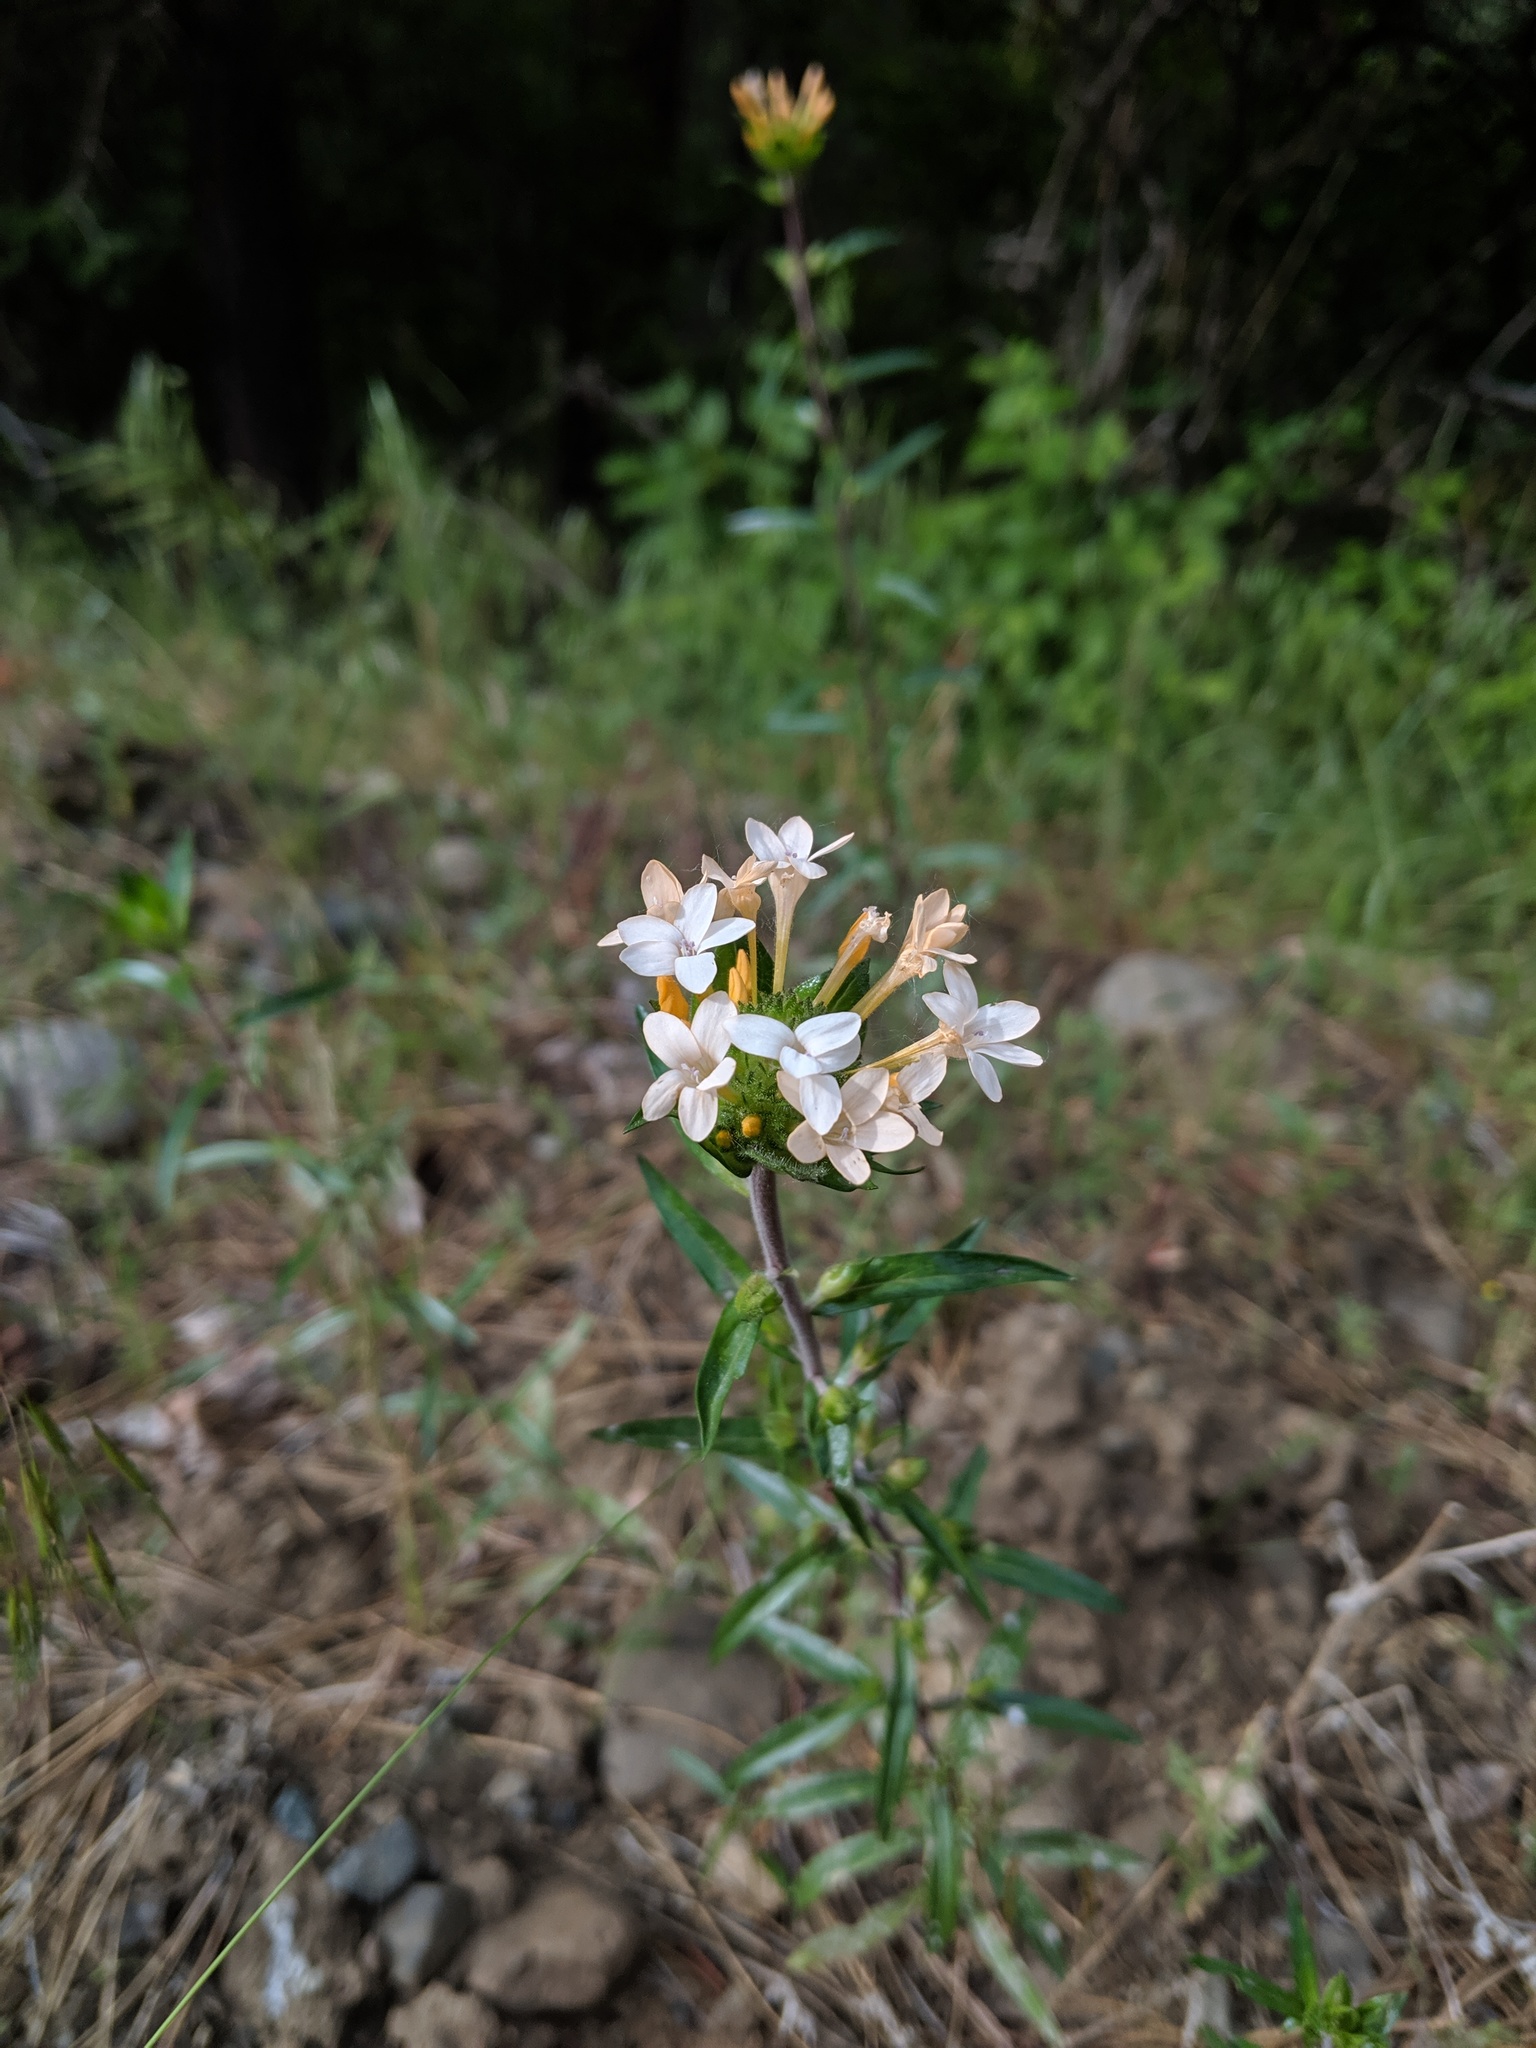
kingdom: Plantae
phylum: Tracheophyta
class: Magnoliopsida
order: Ericales
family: Polemoniaceae
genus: Collomia
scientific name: Collomia grandiflora
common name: California strawflower
